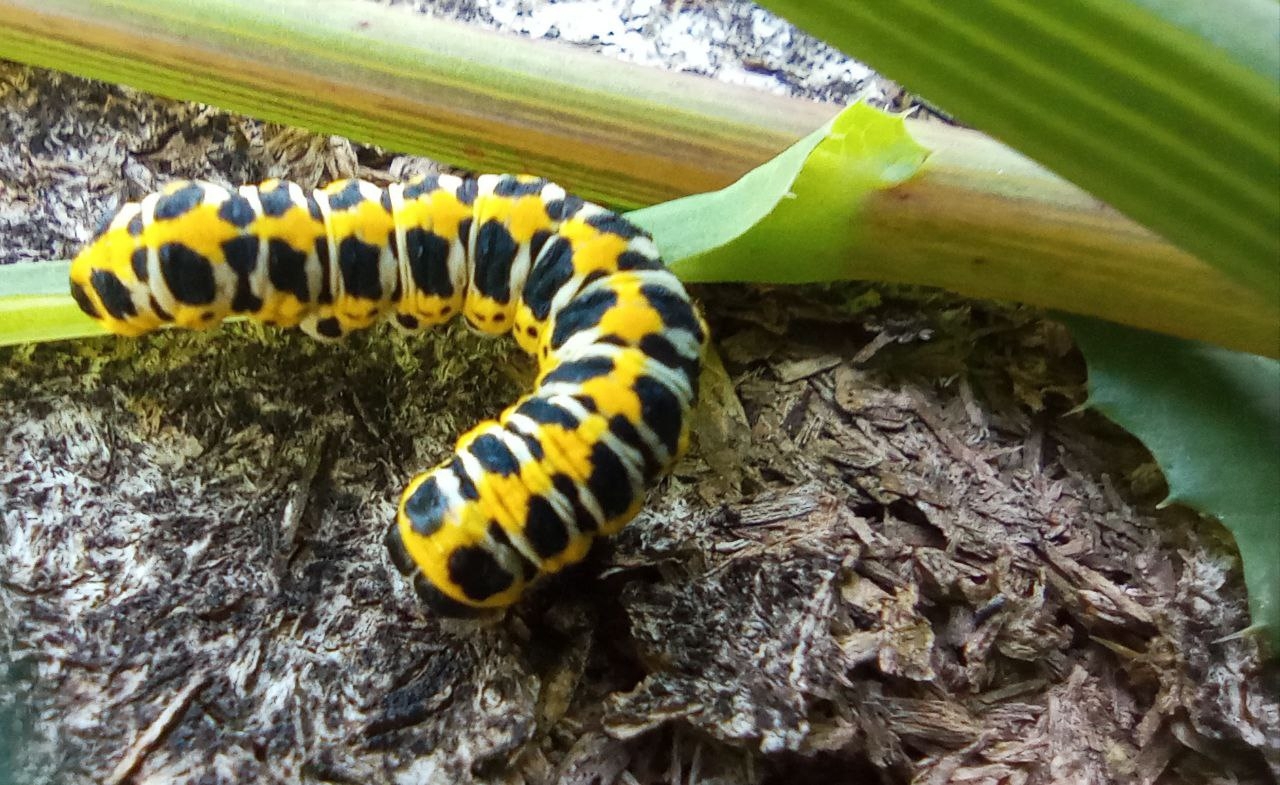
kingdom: Animalia
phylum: Arthropoda
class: Insecta
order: Lepidoptera
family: Noctuidae
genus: Cucullia
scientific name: Cucullia pustulata
